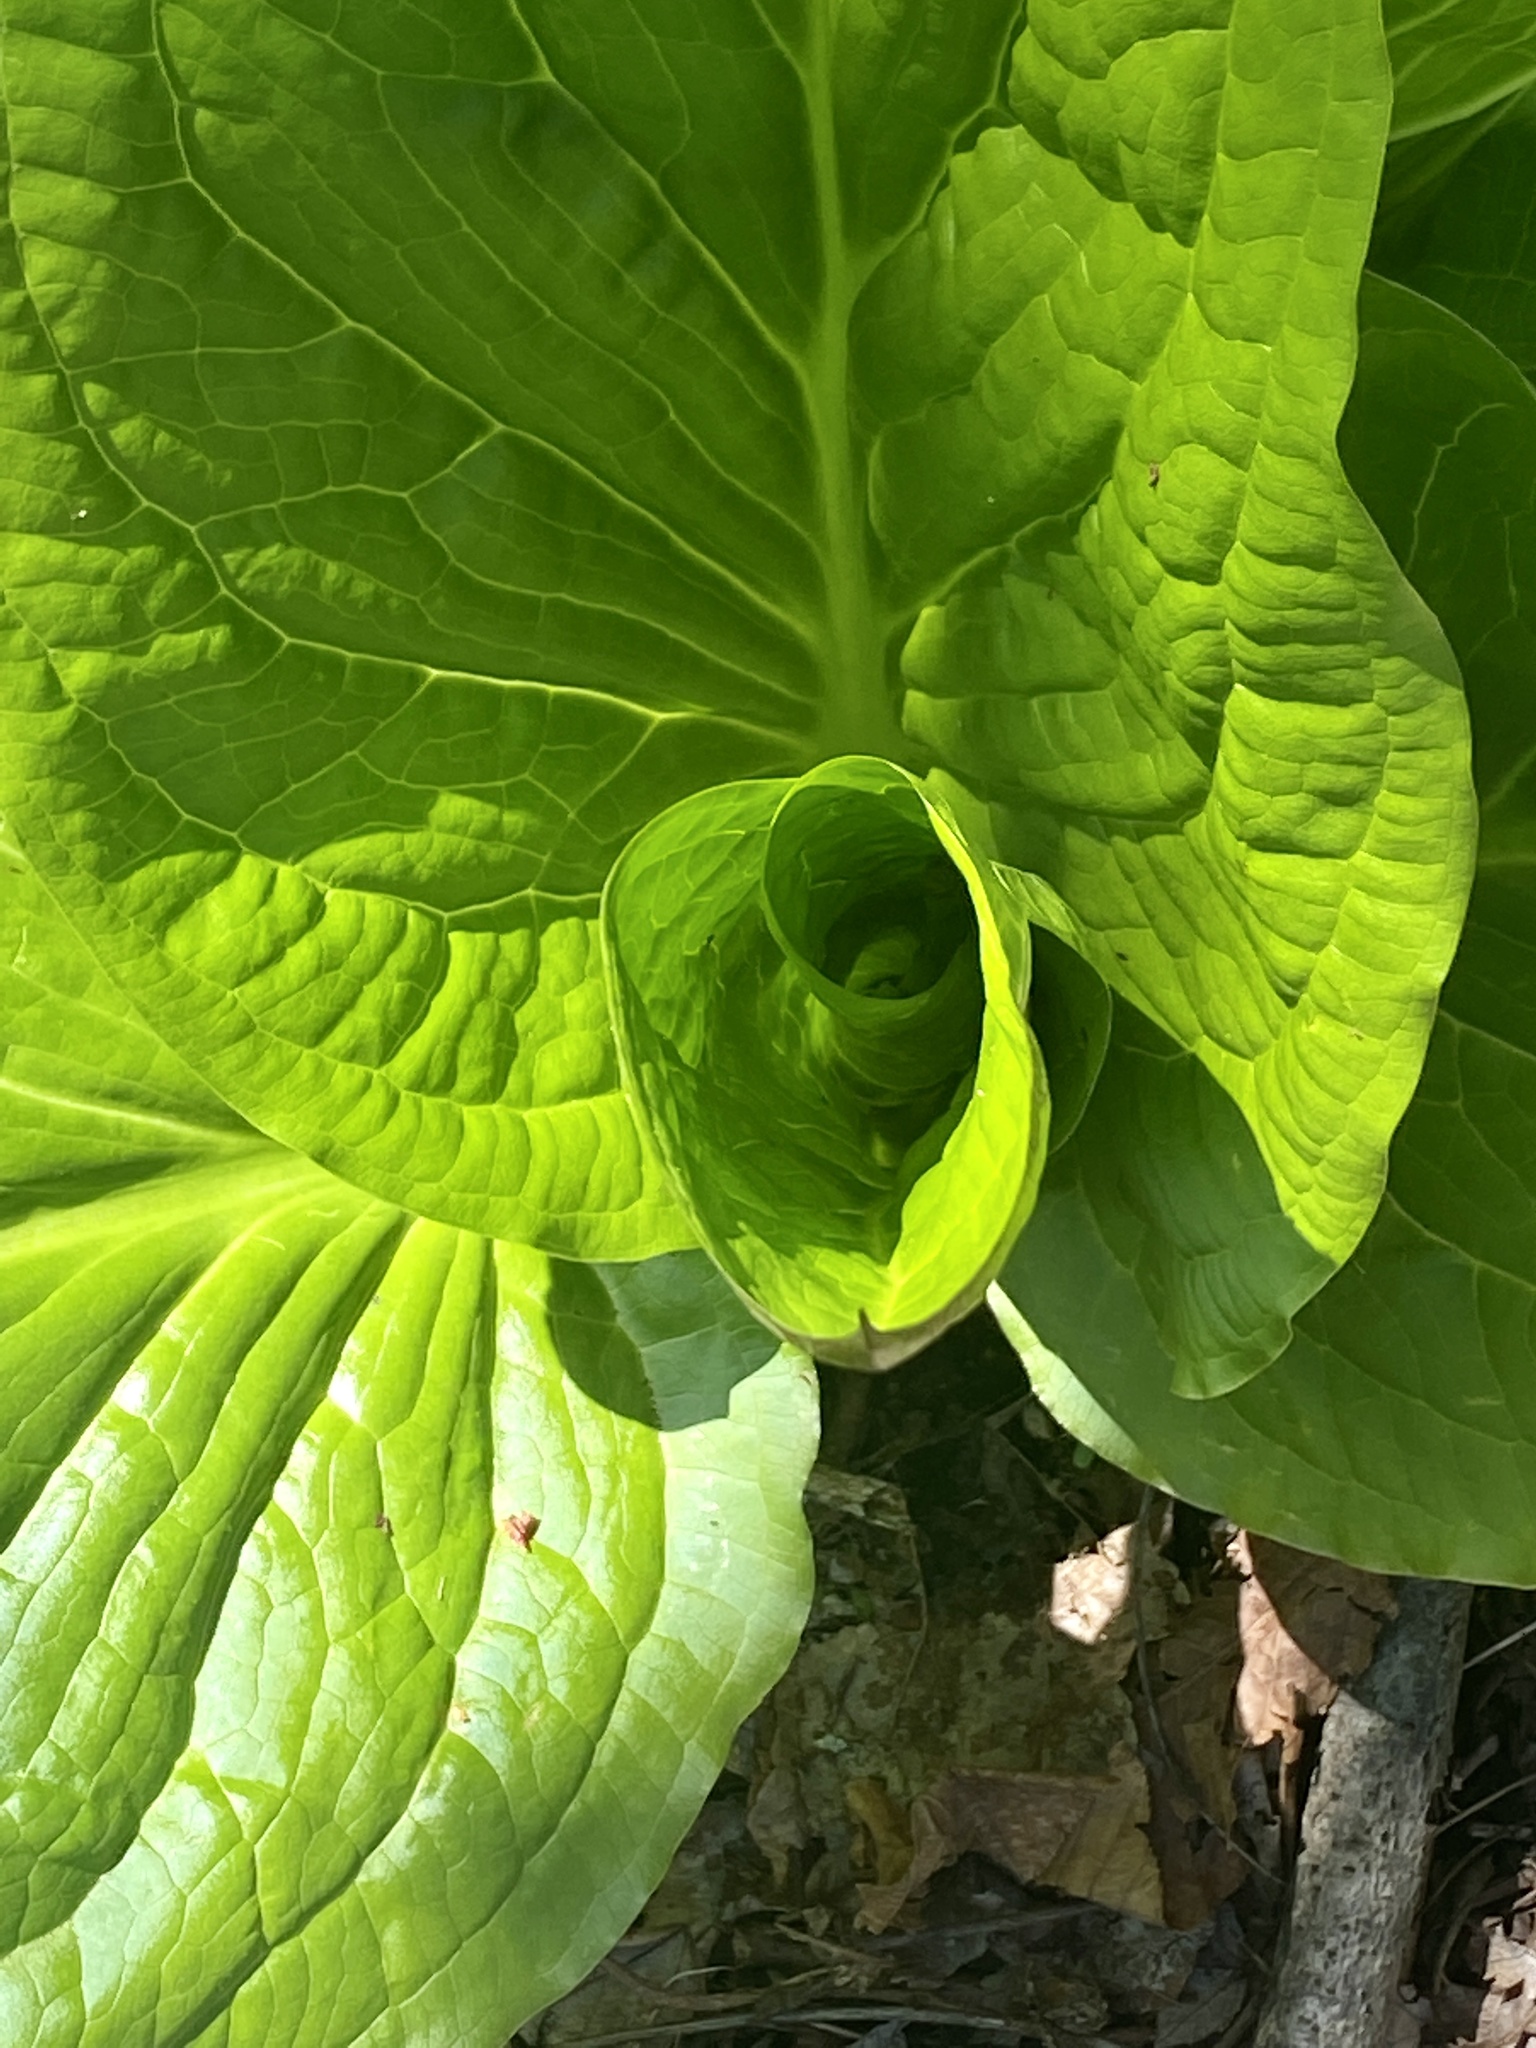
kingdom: Plantae
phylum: Tracheophyta
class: Liliopsida
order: Alismatales
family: Araceae
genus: Symplocarpus
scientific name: Symplocarpus foetidus
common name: Eastern skunk cabbage
